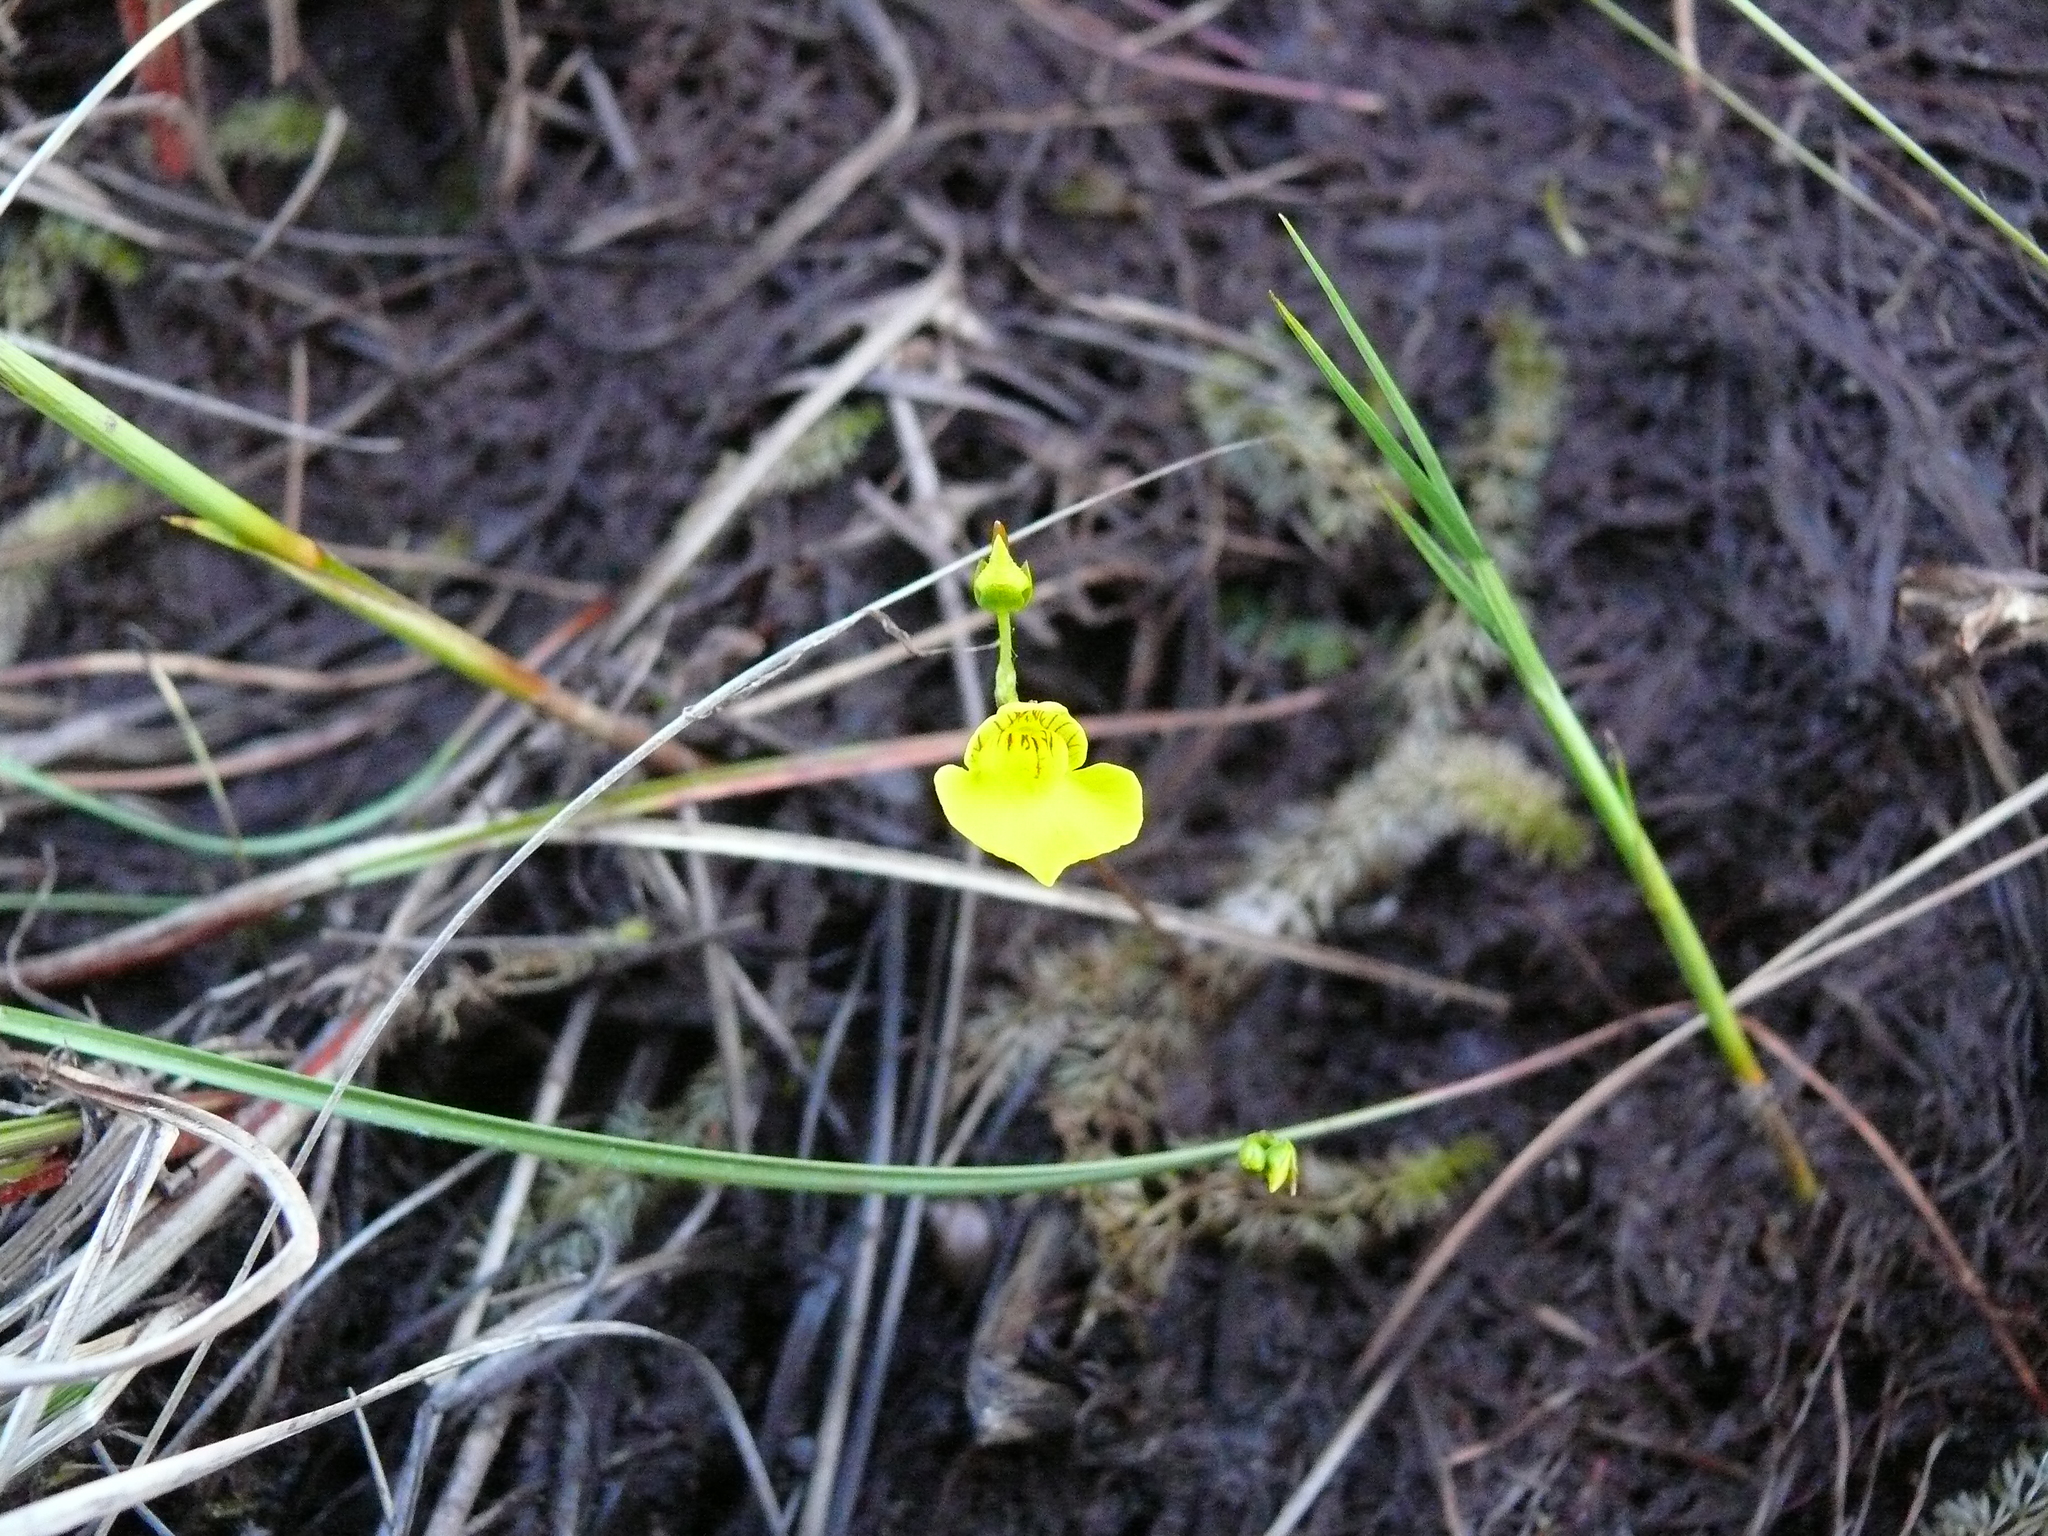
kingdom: Plantae
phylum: Tracheophyta
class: Magnoliopsida
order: Lamiales
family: Lentibulariaceae
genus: Utricularia
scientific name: Utricularia intermedia
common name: Intermediate bladderwort
